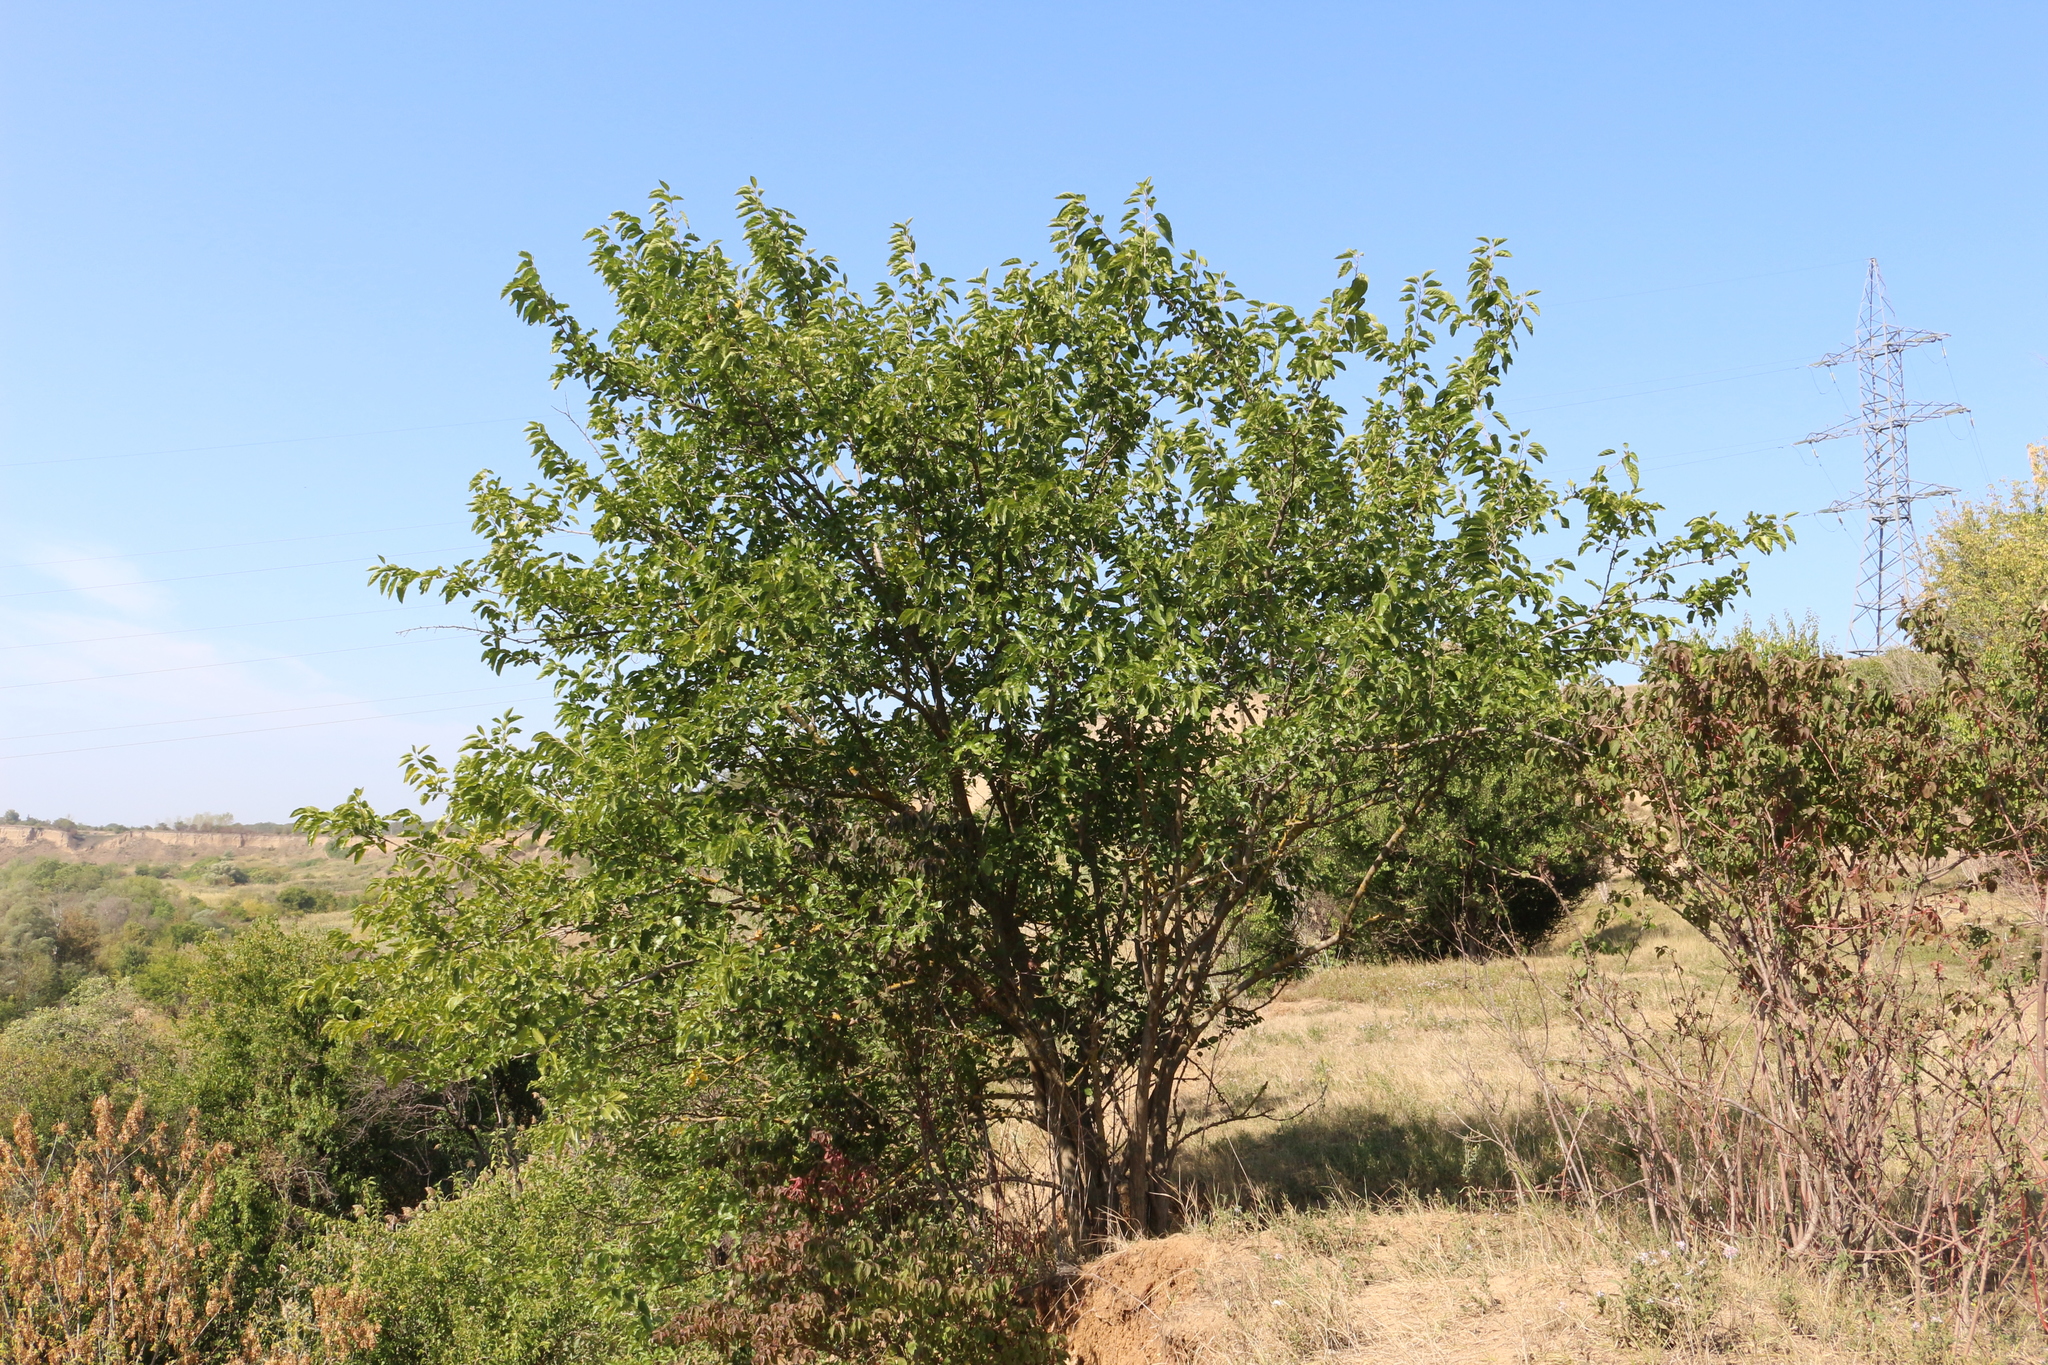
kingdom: Plantae
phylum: Tracheophyta
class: Magnoliopsida
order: Rosales
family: Moraceae
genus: Morus
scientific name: Morus alba
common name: White mulberry
